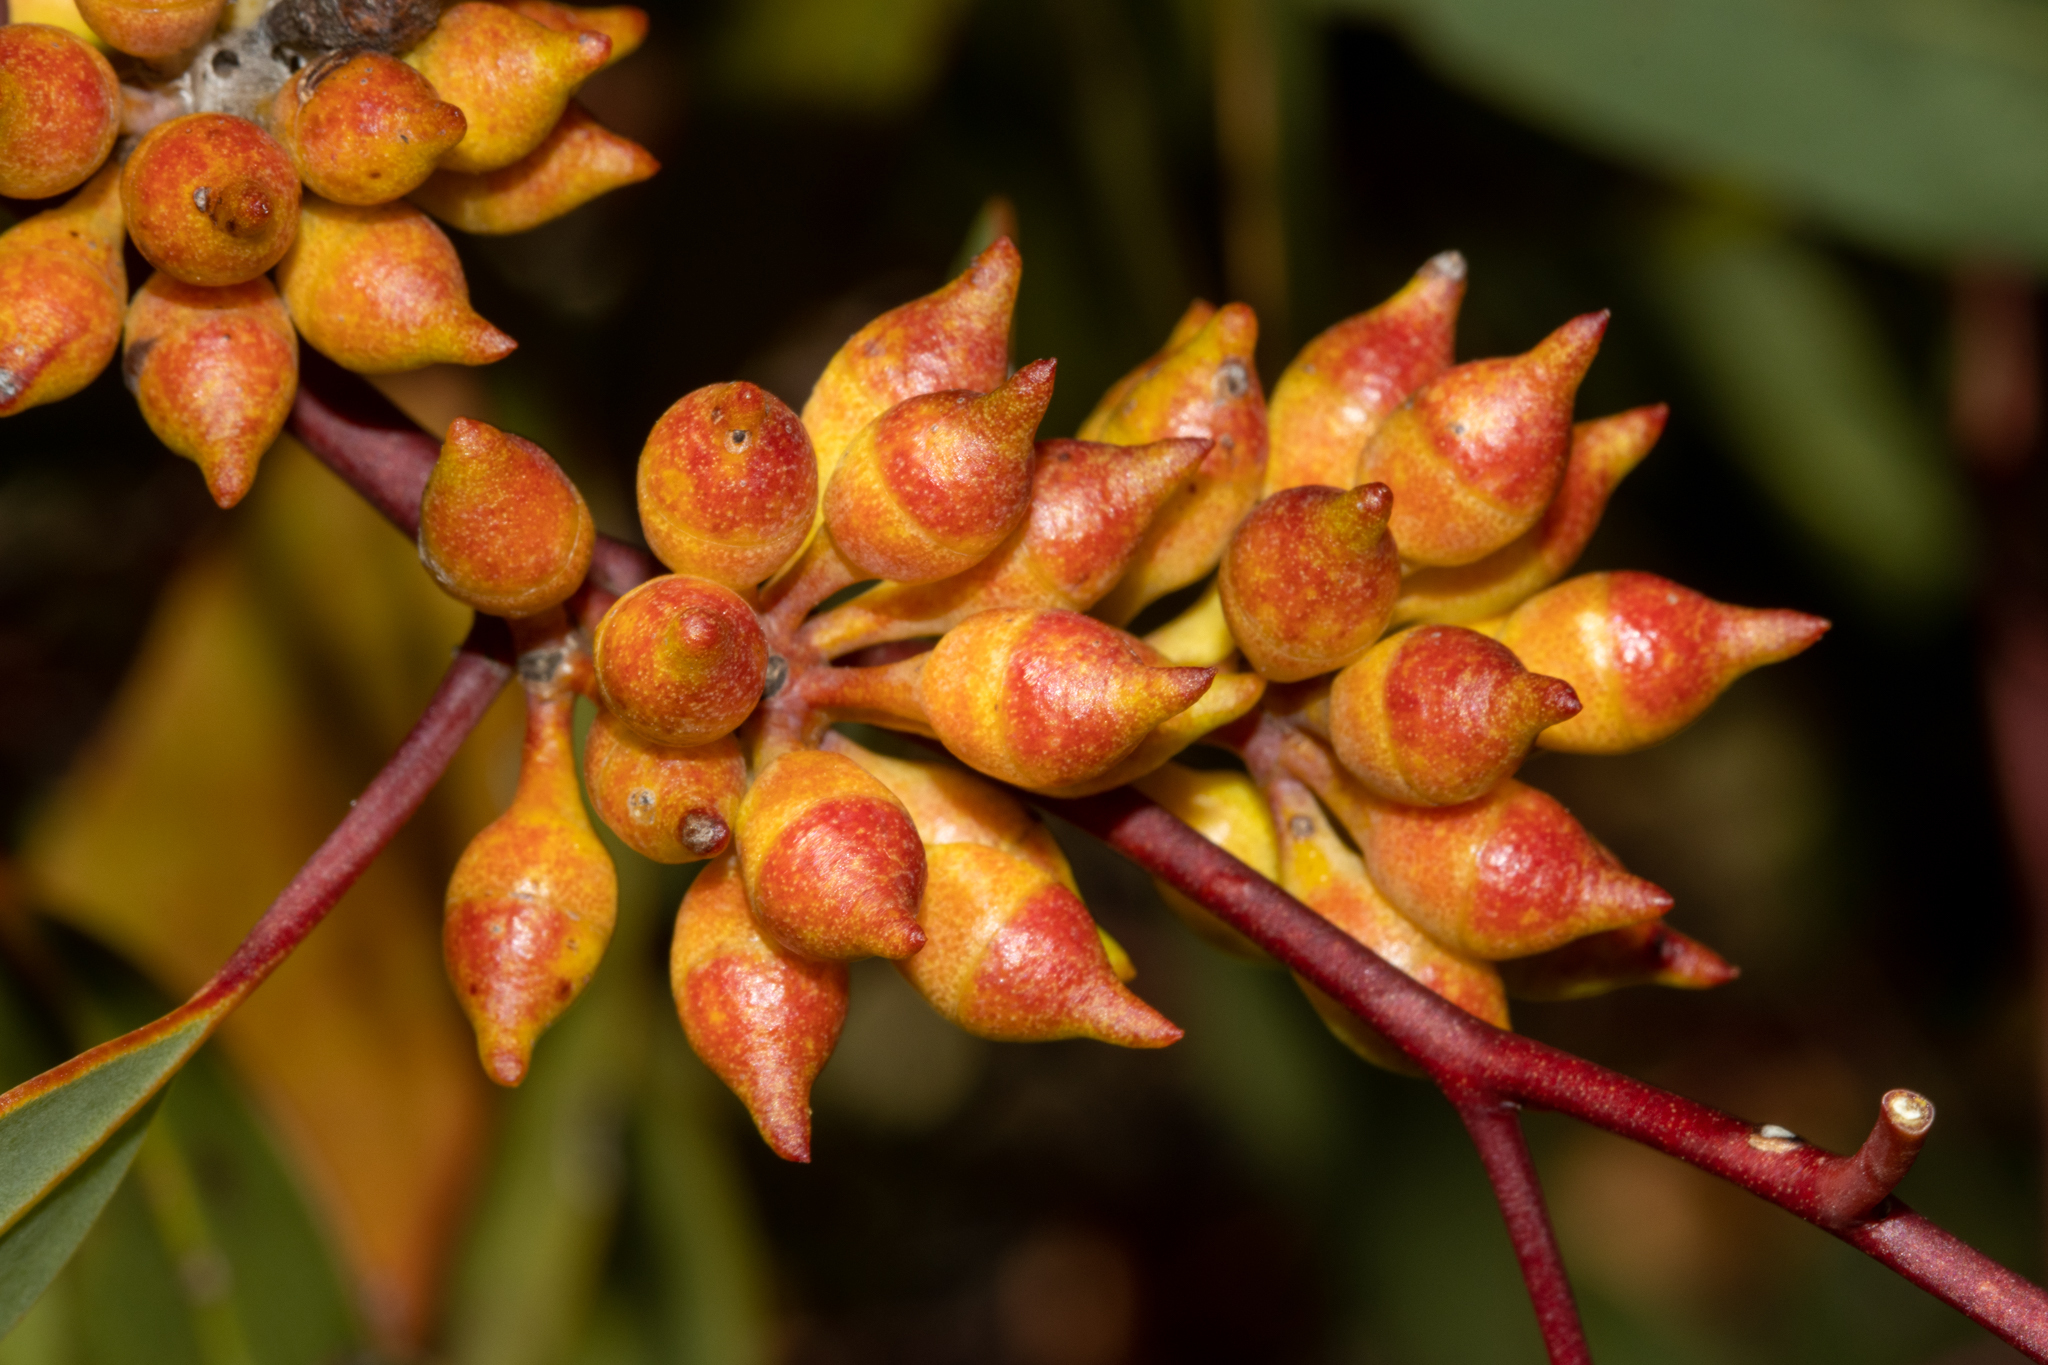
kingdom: Plantae
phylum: Tracheophyta
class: Magnoliopsida
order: Myrtales
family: Myrtaceae
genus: Eucalyptus
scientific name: Eucalyptus socialis
